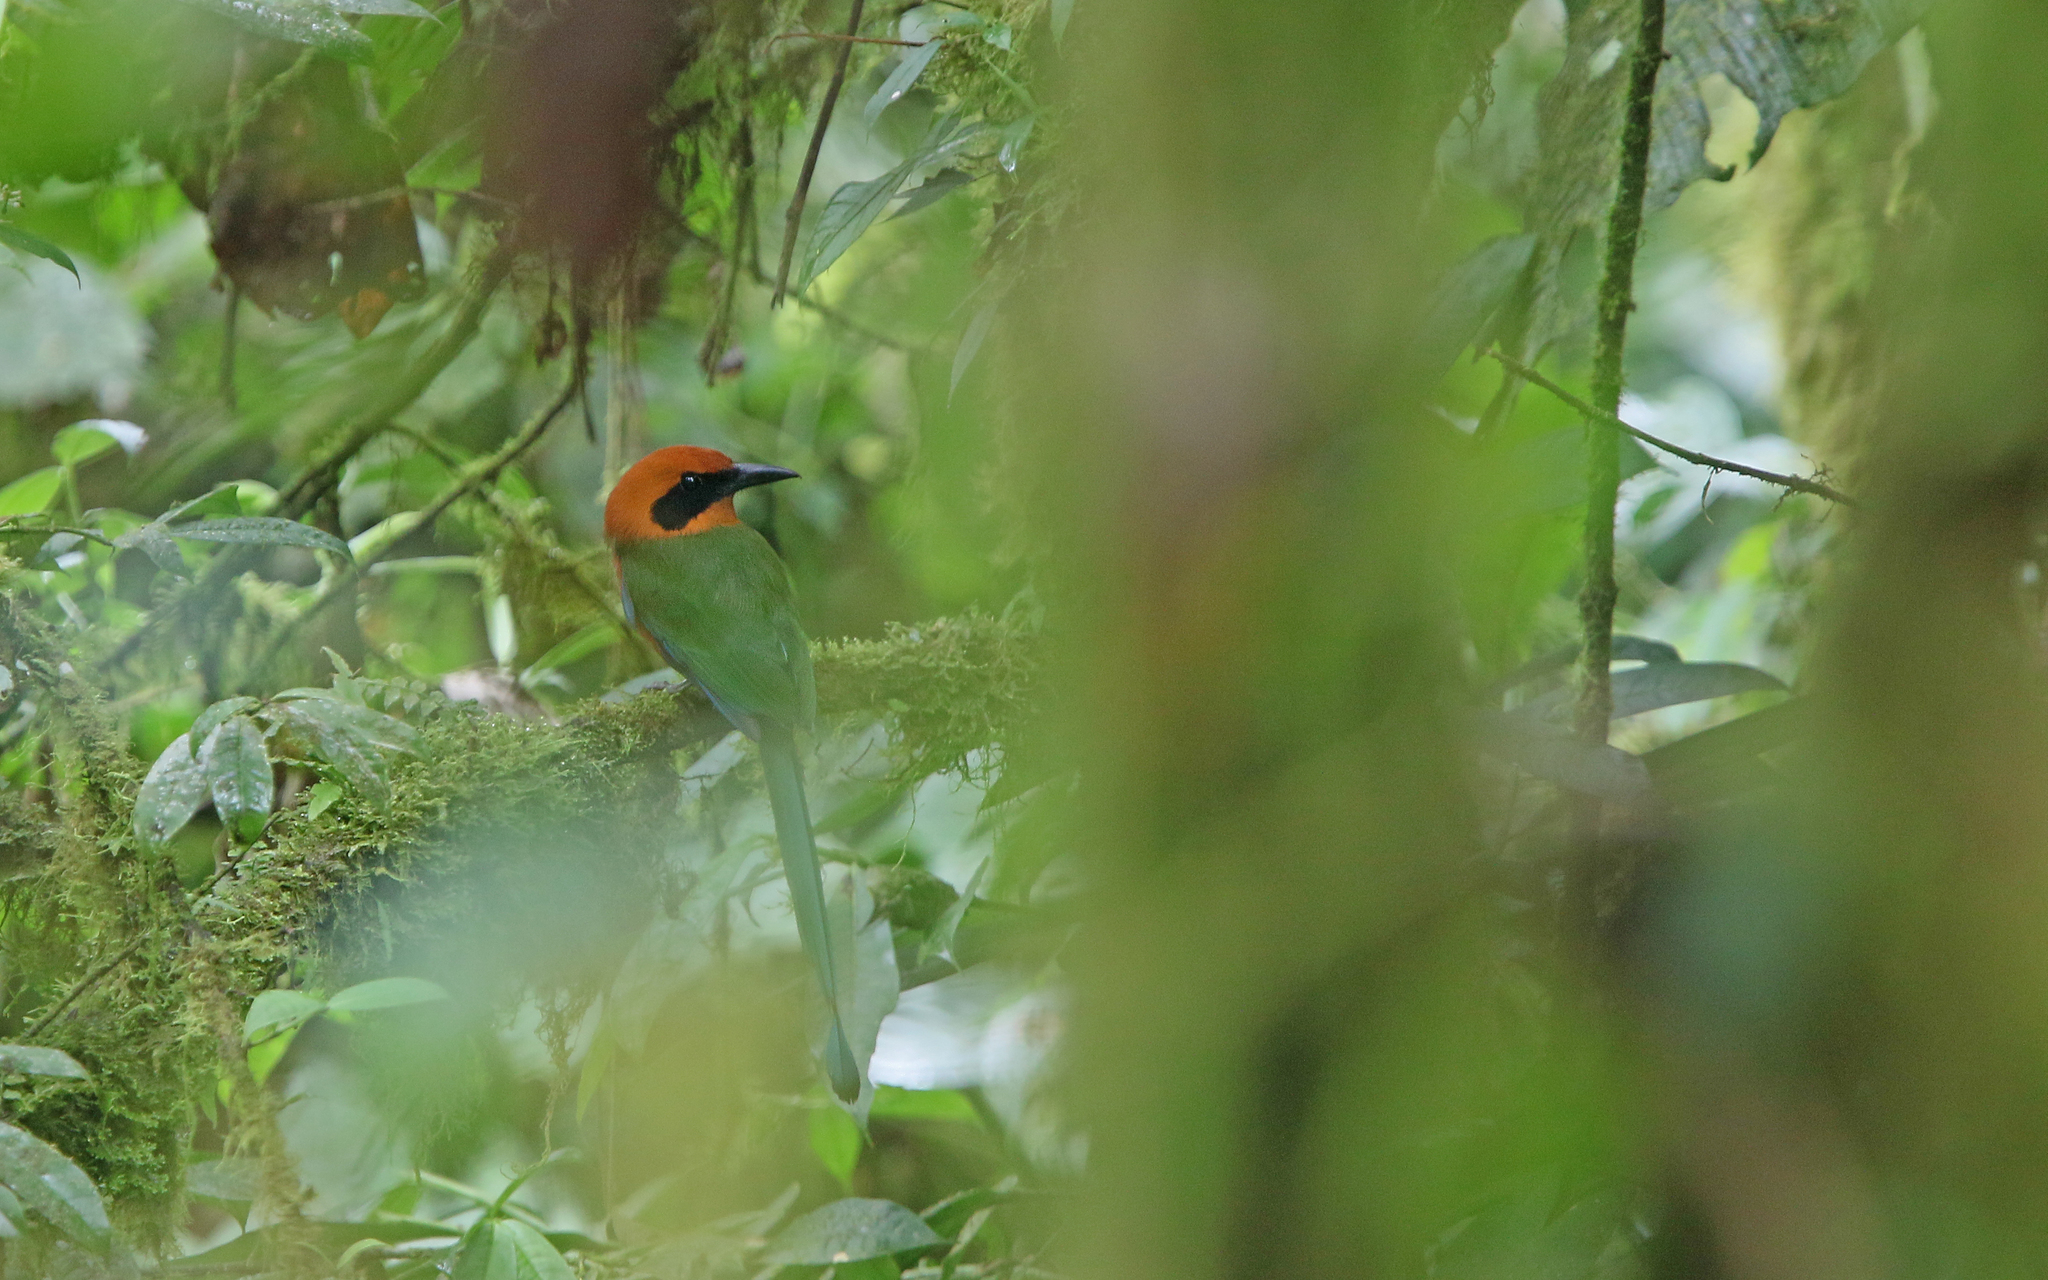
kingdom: Animalia
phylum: Chordata
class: Aves
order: Coraciiformes
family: Momotidae
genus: Baryphthengus
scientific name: Baryphthengus martii
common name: Rufous motmot
